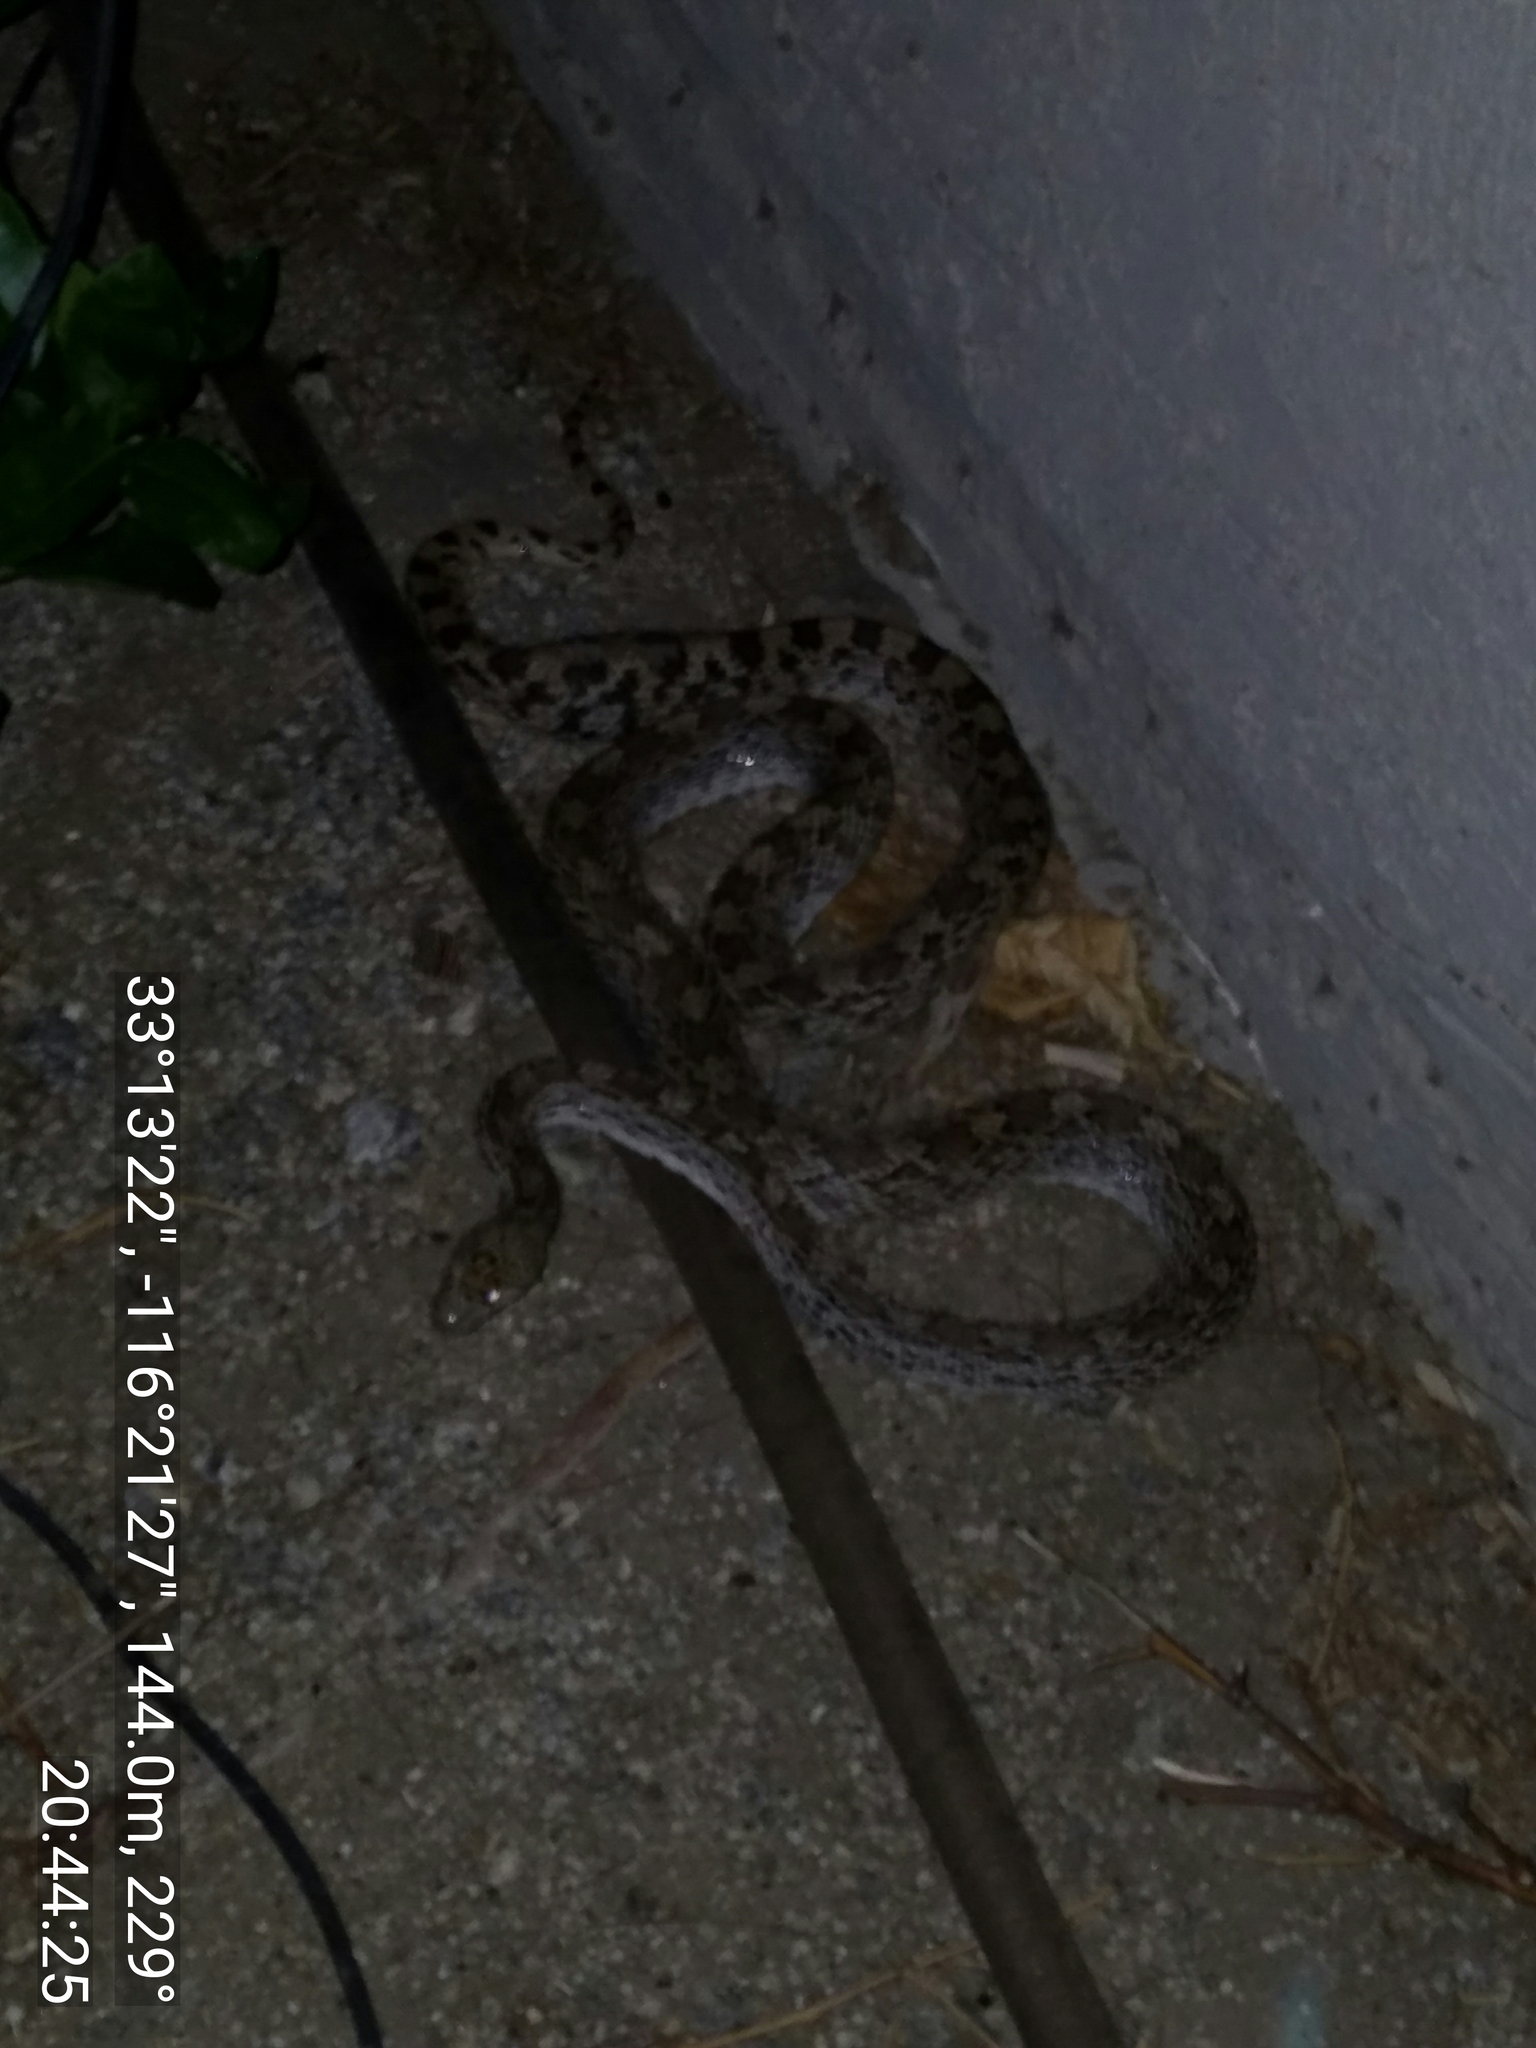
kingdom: Animalia
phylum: Chordata
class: Squamata
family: Colubridae
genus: Pituophis
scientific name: Pituophis catenifer
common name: Gopher snake
